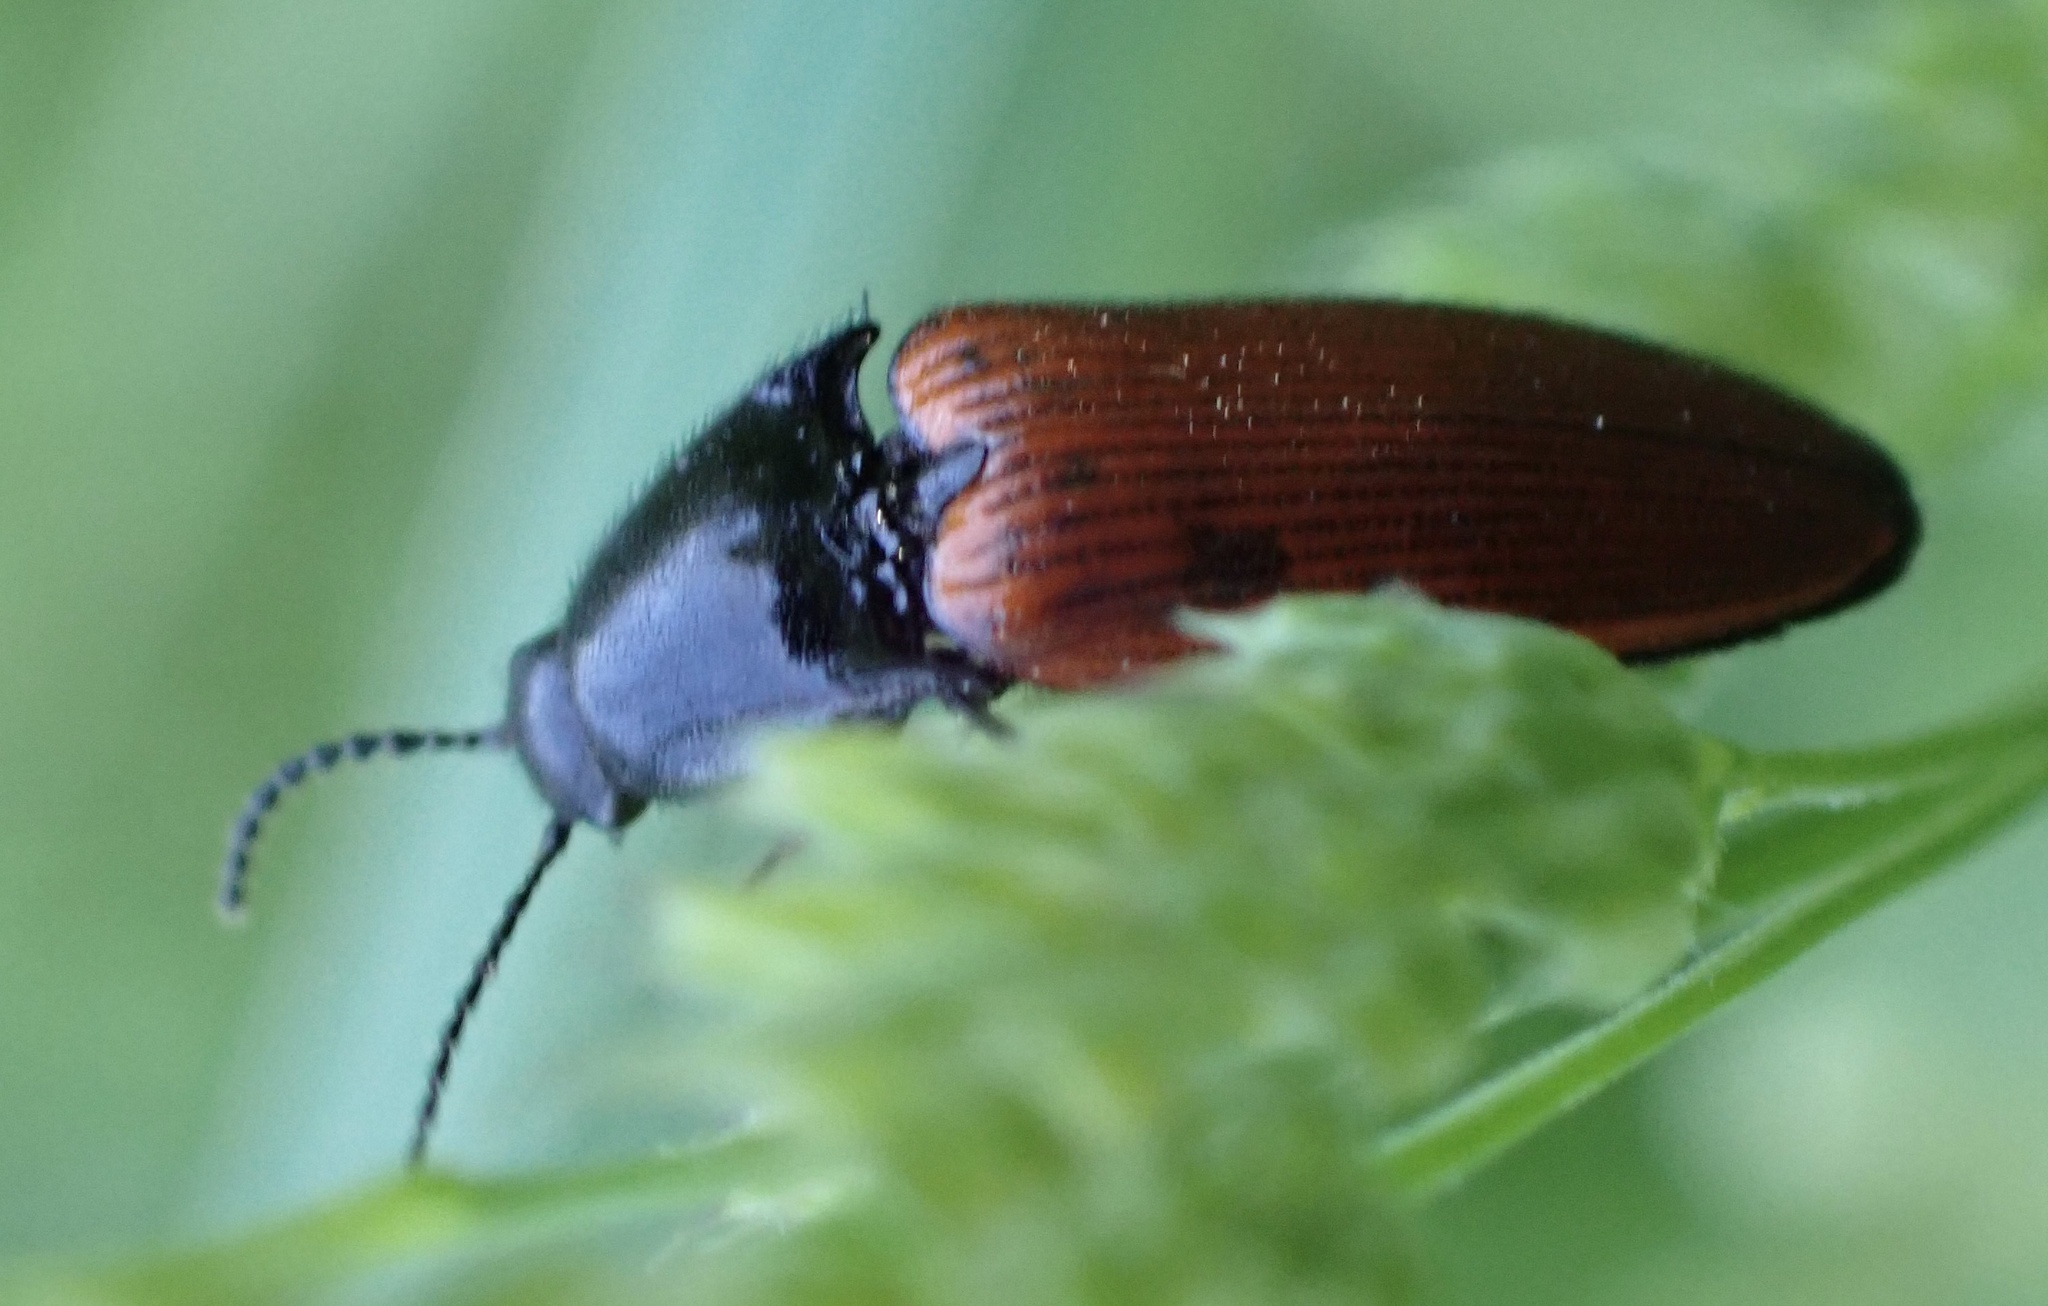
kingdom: Animalia
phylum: Arthropoda
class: Insecta
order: Coleoptera
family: Elateridae
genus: Ampedus
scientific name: Ampedus sanguineus
